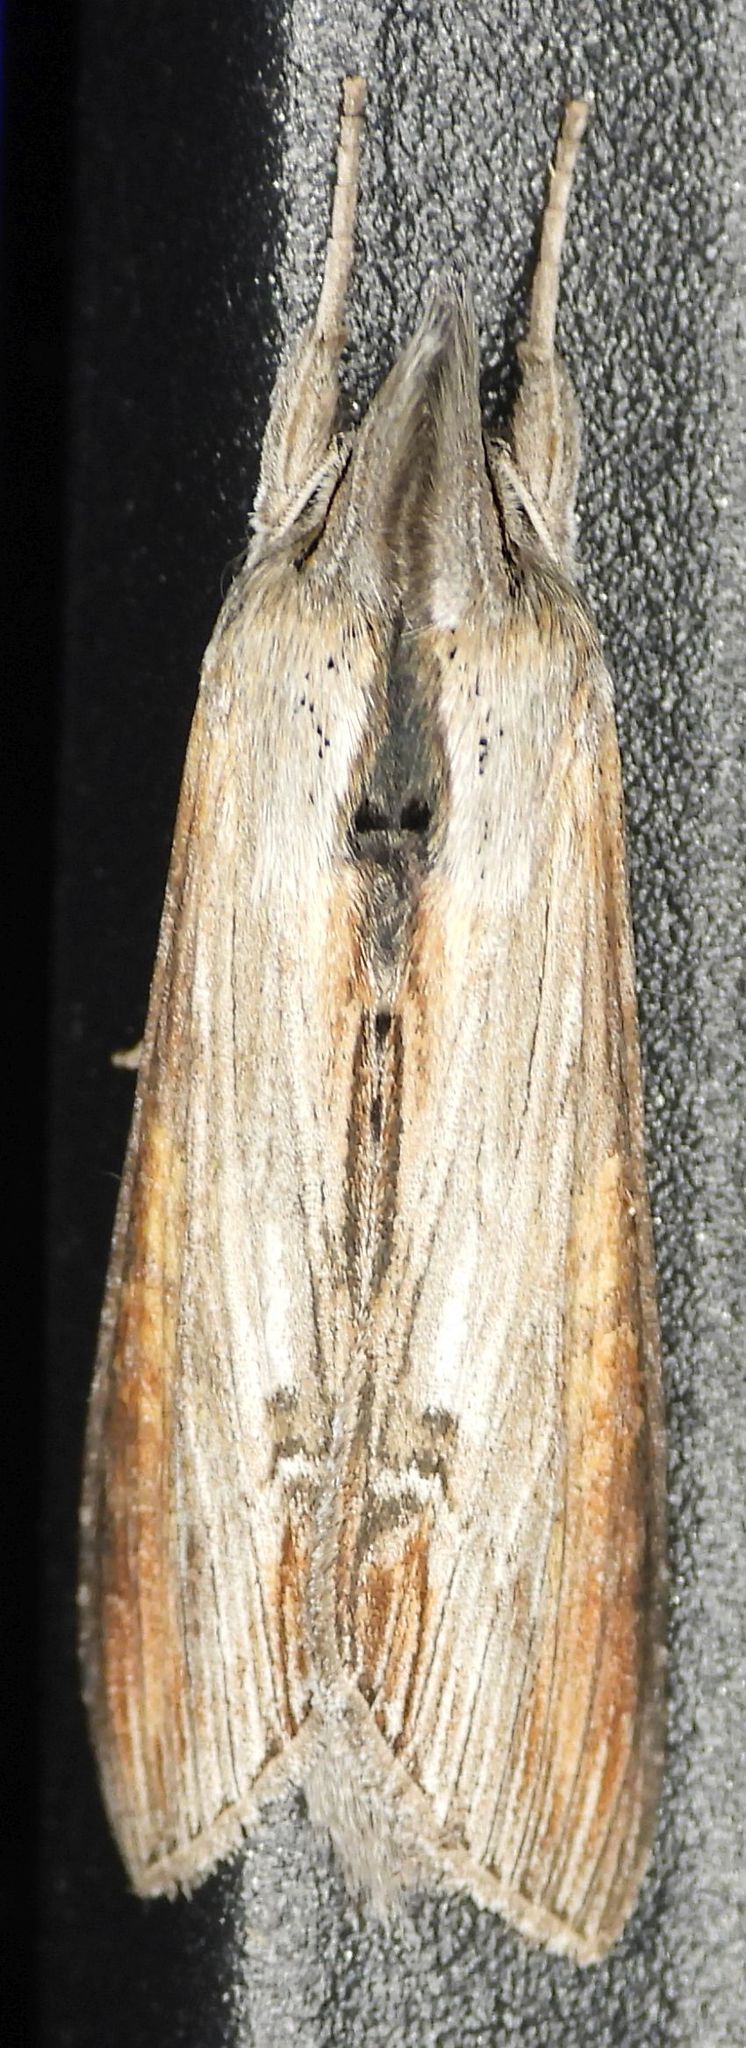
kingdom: Animalia
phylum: Arthropoda
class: Insecta
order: Lepidoptera
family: Noctuidae
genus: Cucullia
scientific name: Cucullia asteroides
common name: Asteroid moth
